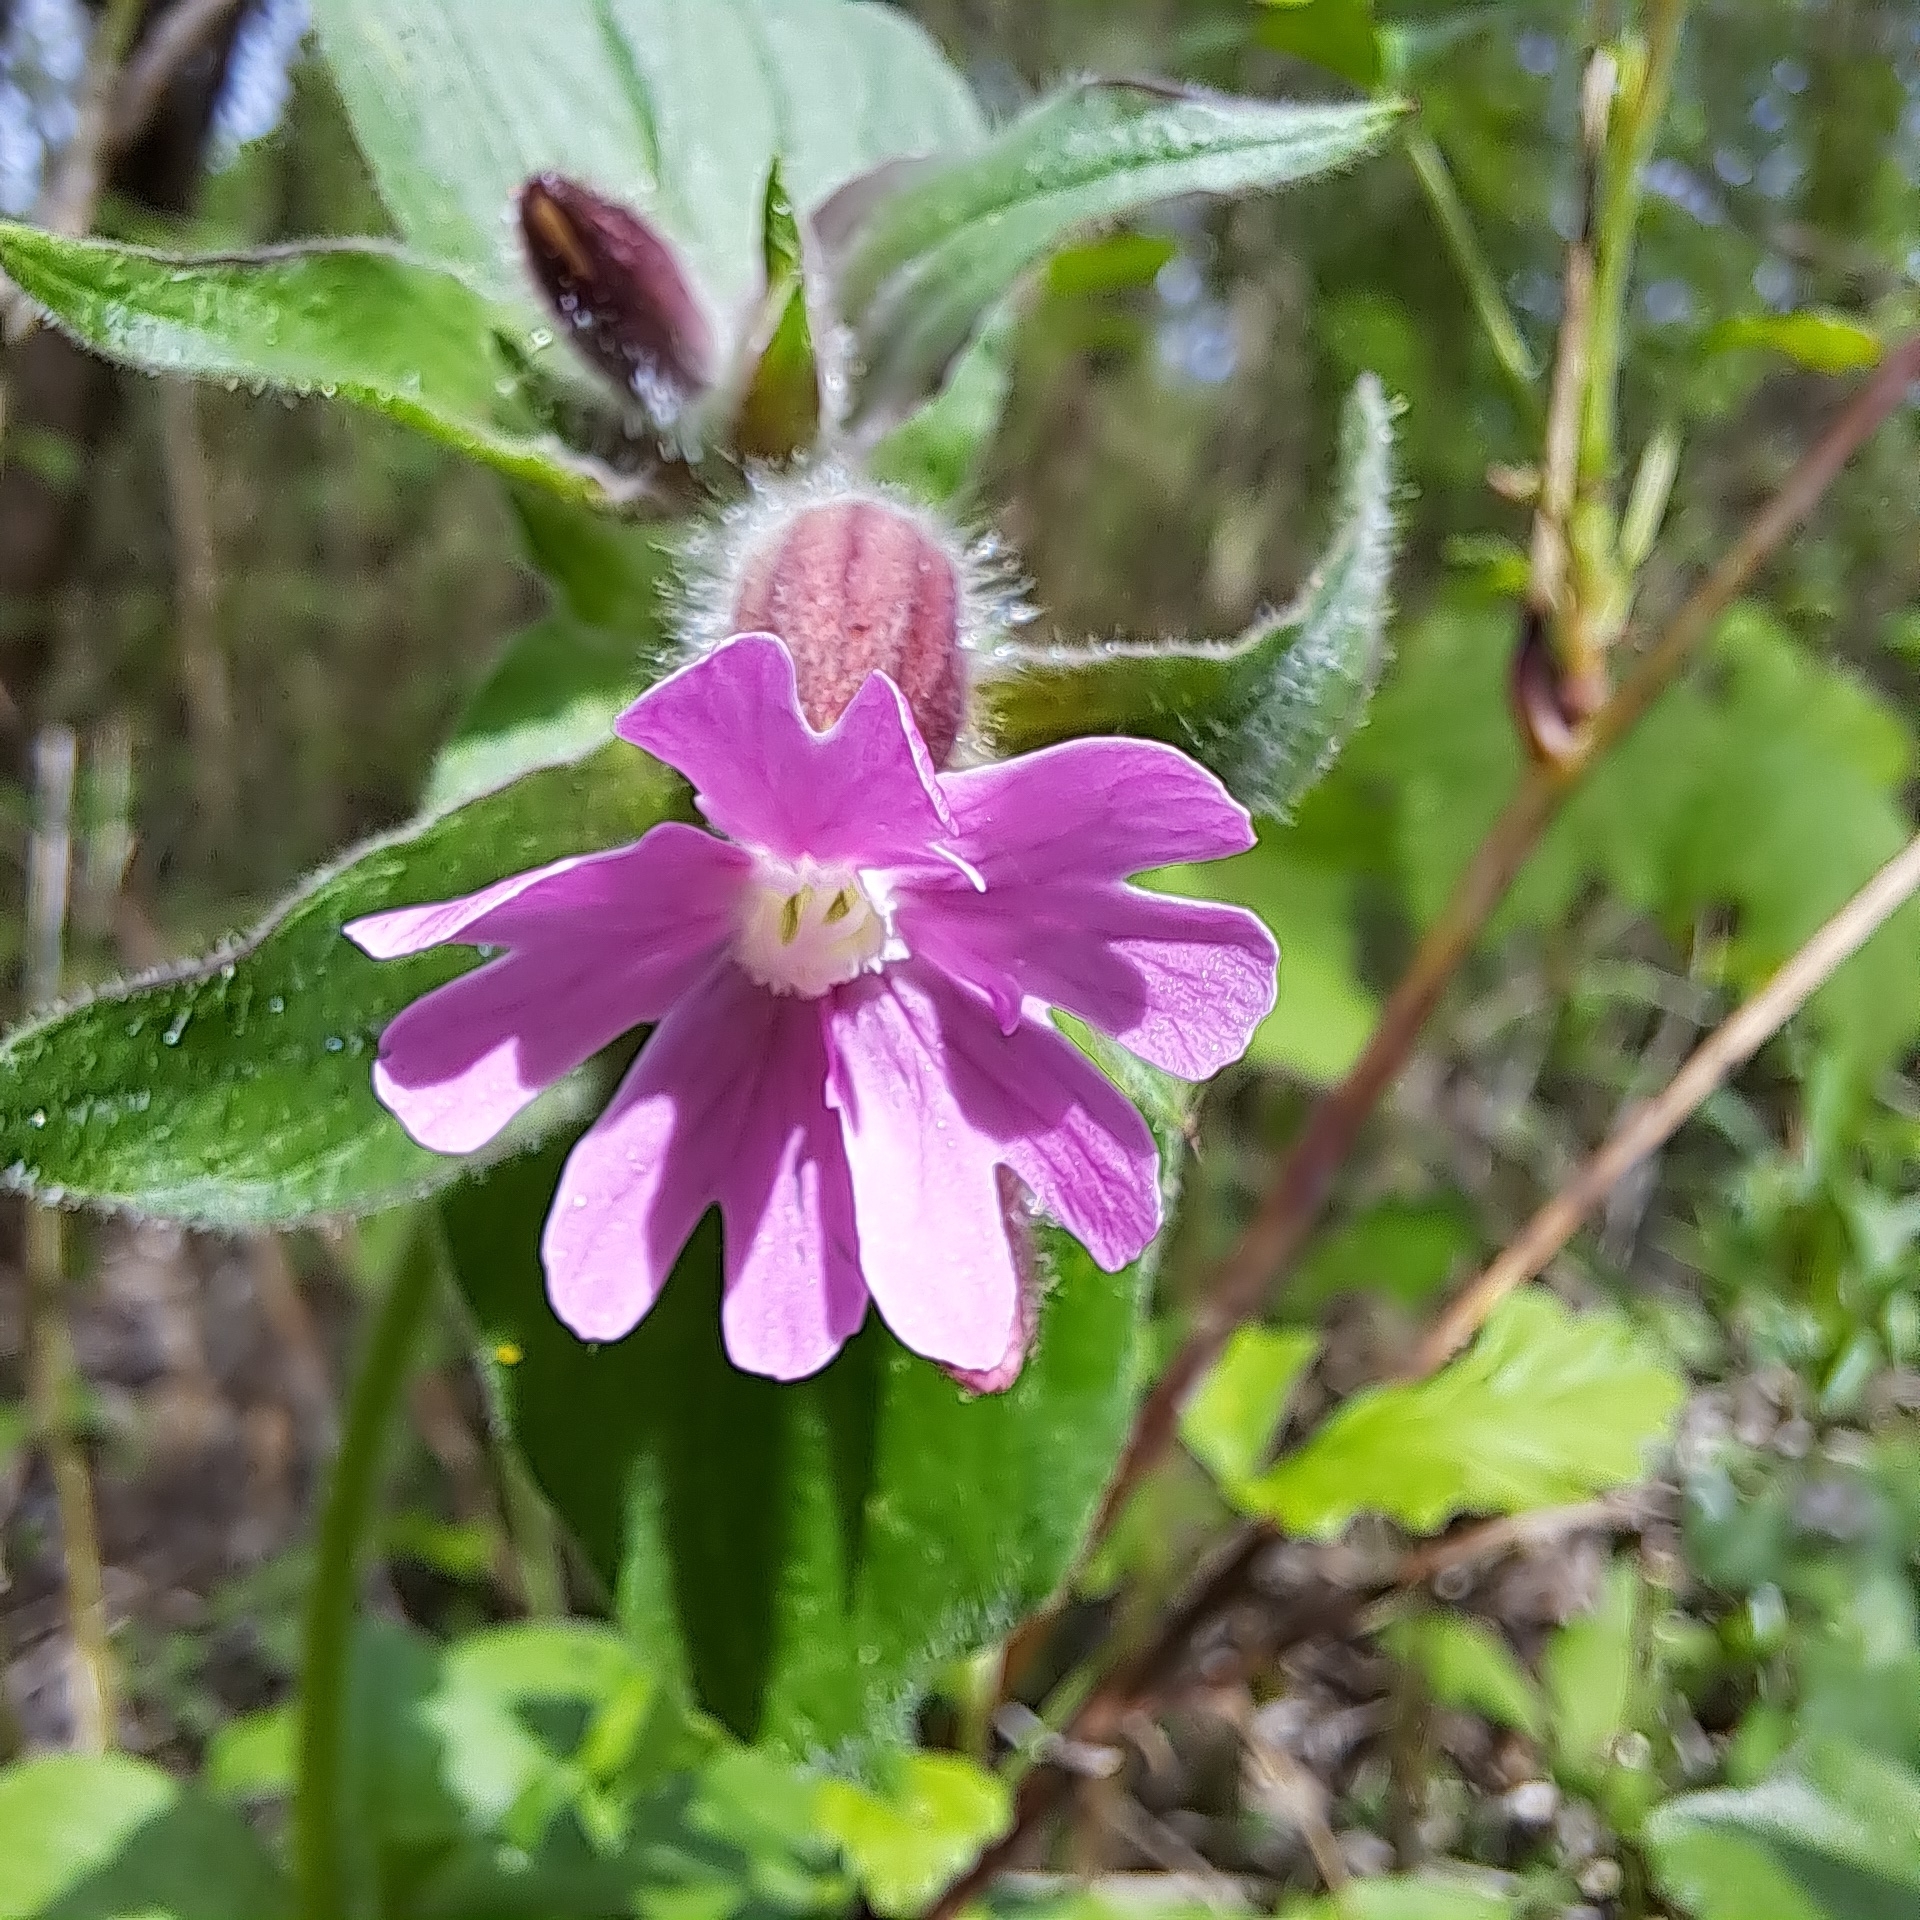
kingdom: Plantae
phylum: Tracheophyta
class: Magnoliopsida
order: Caryophyllales
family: Caryophyllaceae
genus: Silene
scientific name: Silene dioica
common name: Red campion
